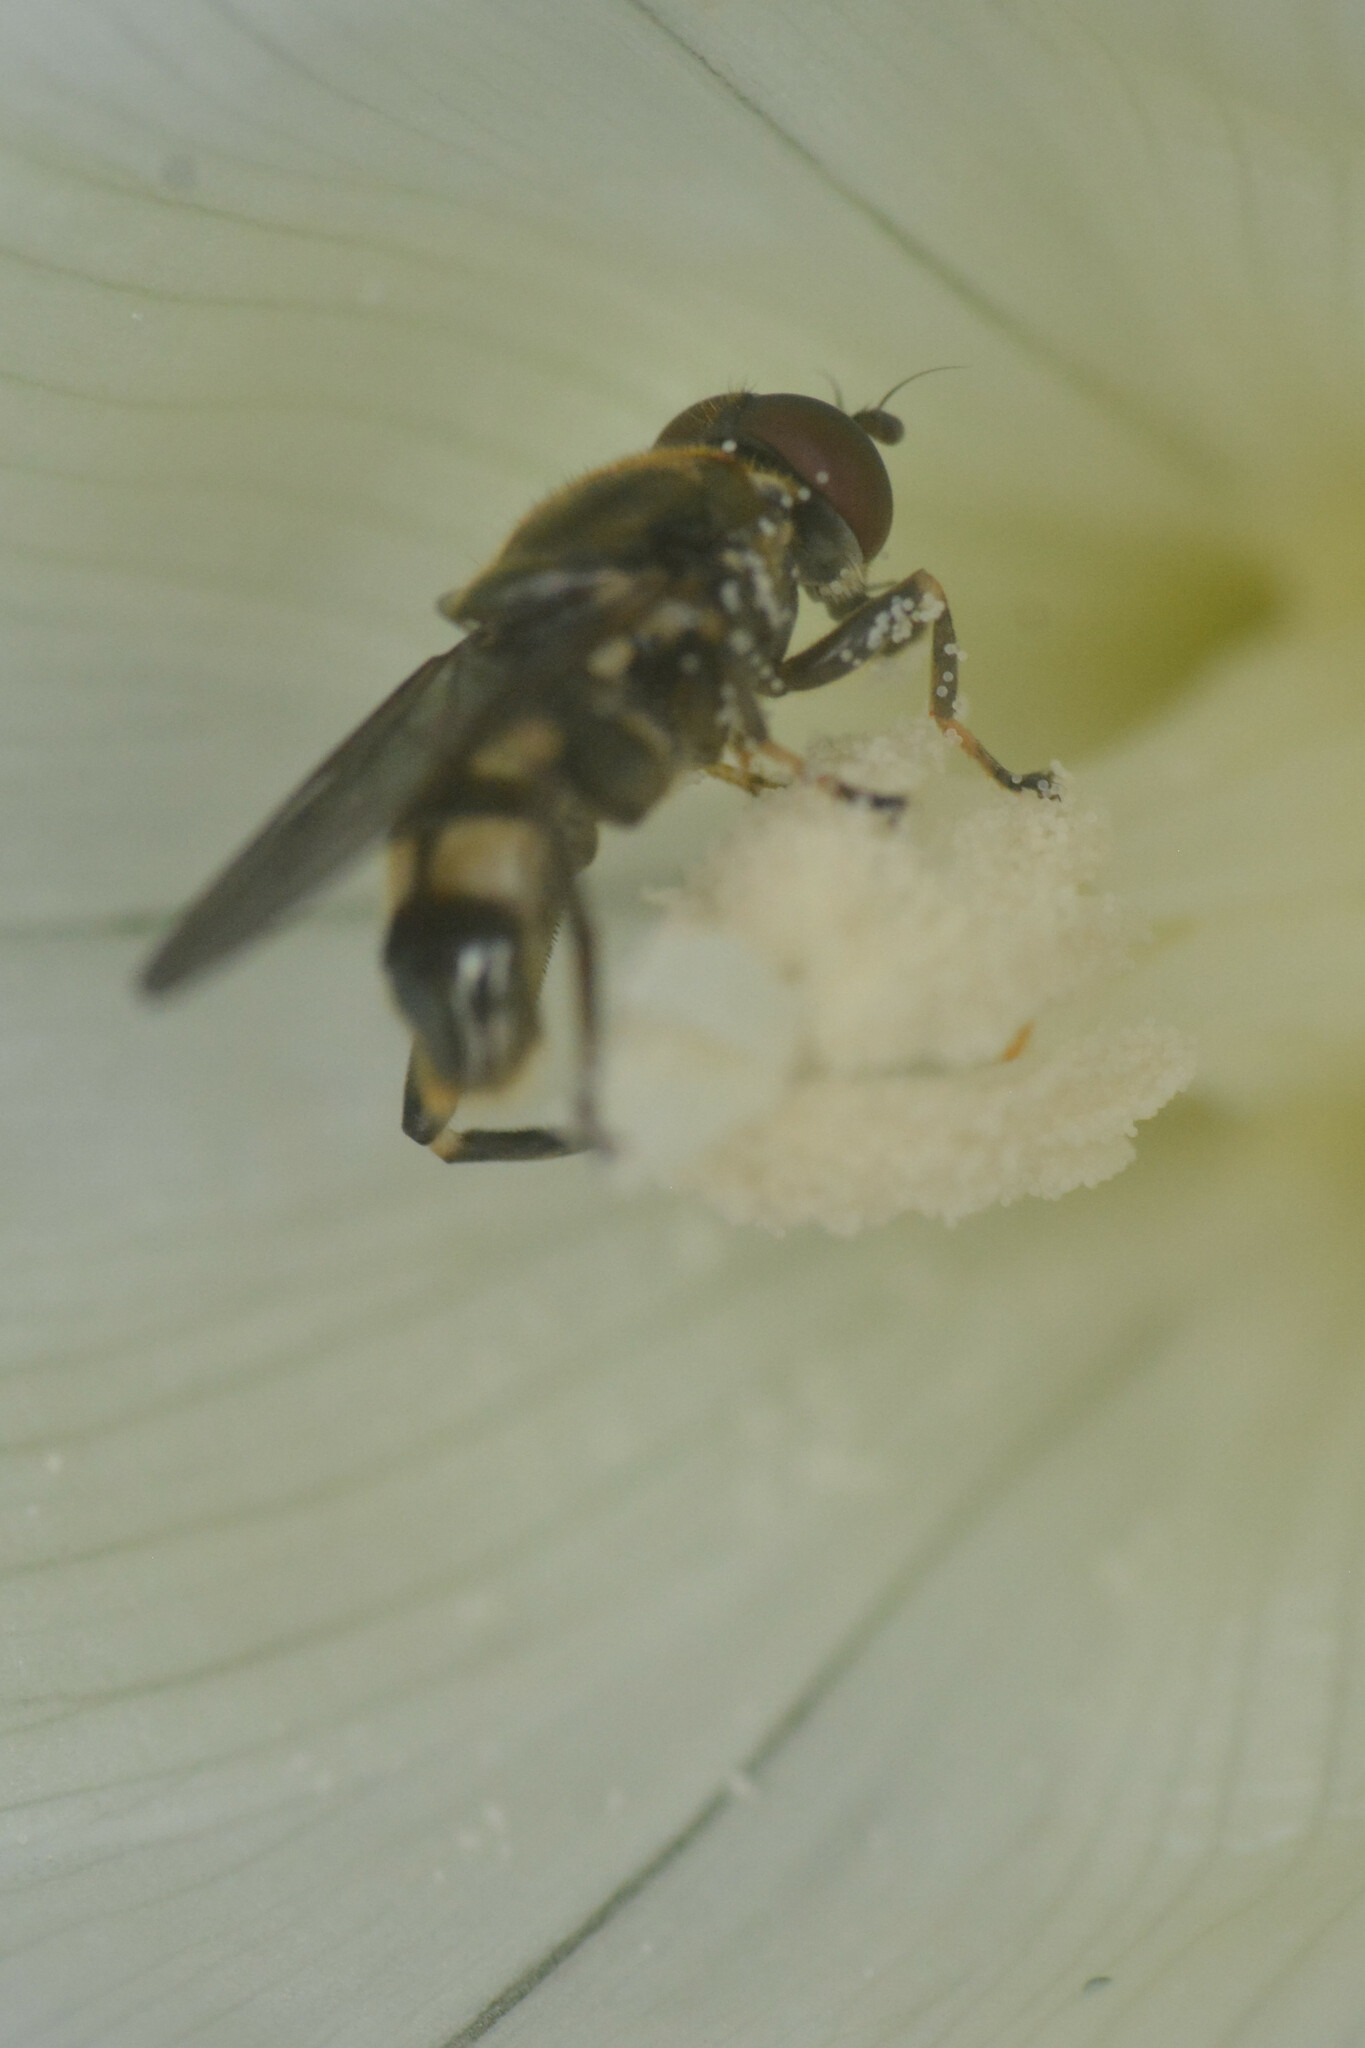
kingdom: Animalia
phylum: Arthropoda
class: Insecta
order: Diptera
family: Syrphidae
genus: Chalcosyrphus
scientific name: Chalcosyrphus nemorum
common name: Dusky-banded forest fly
